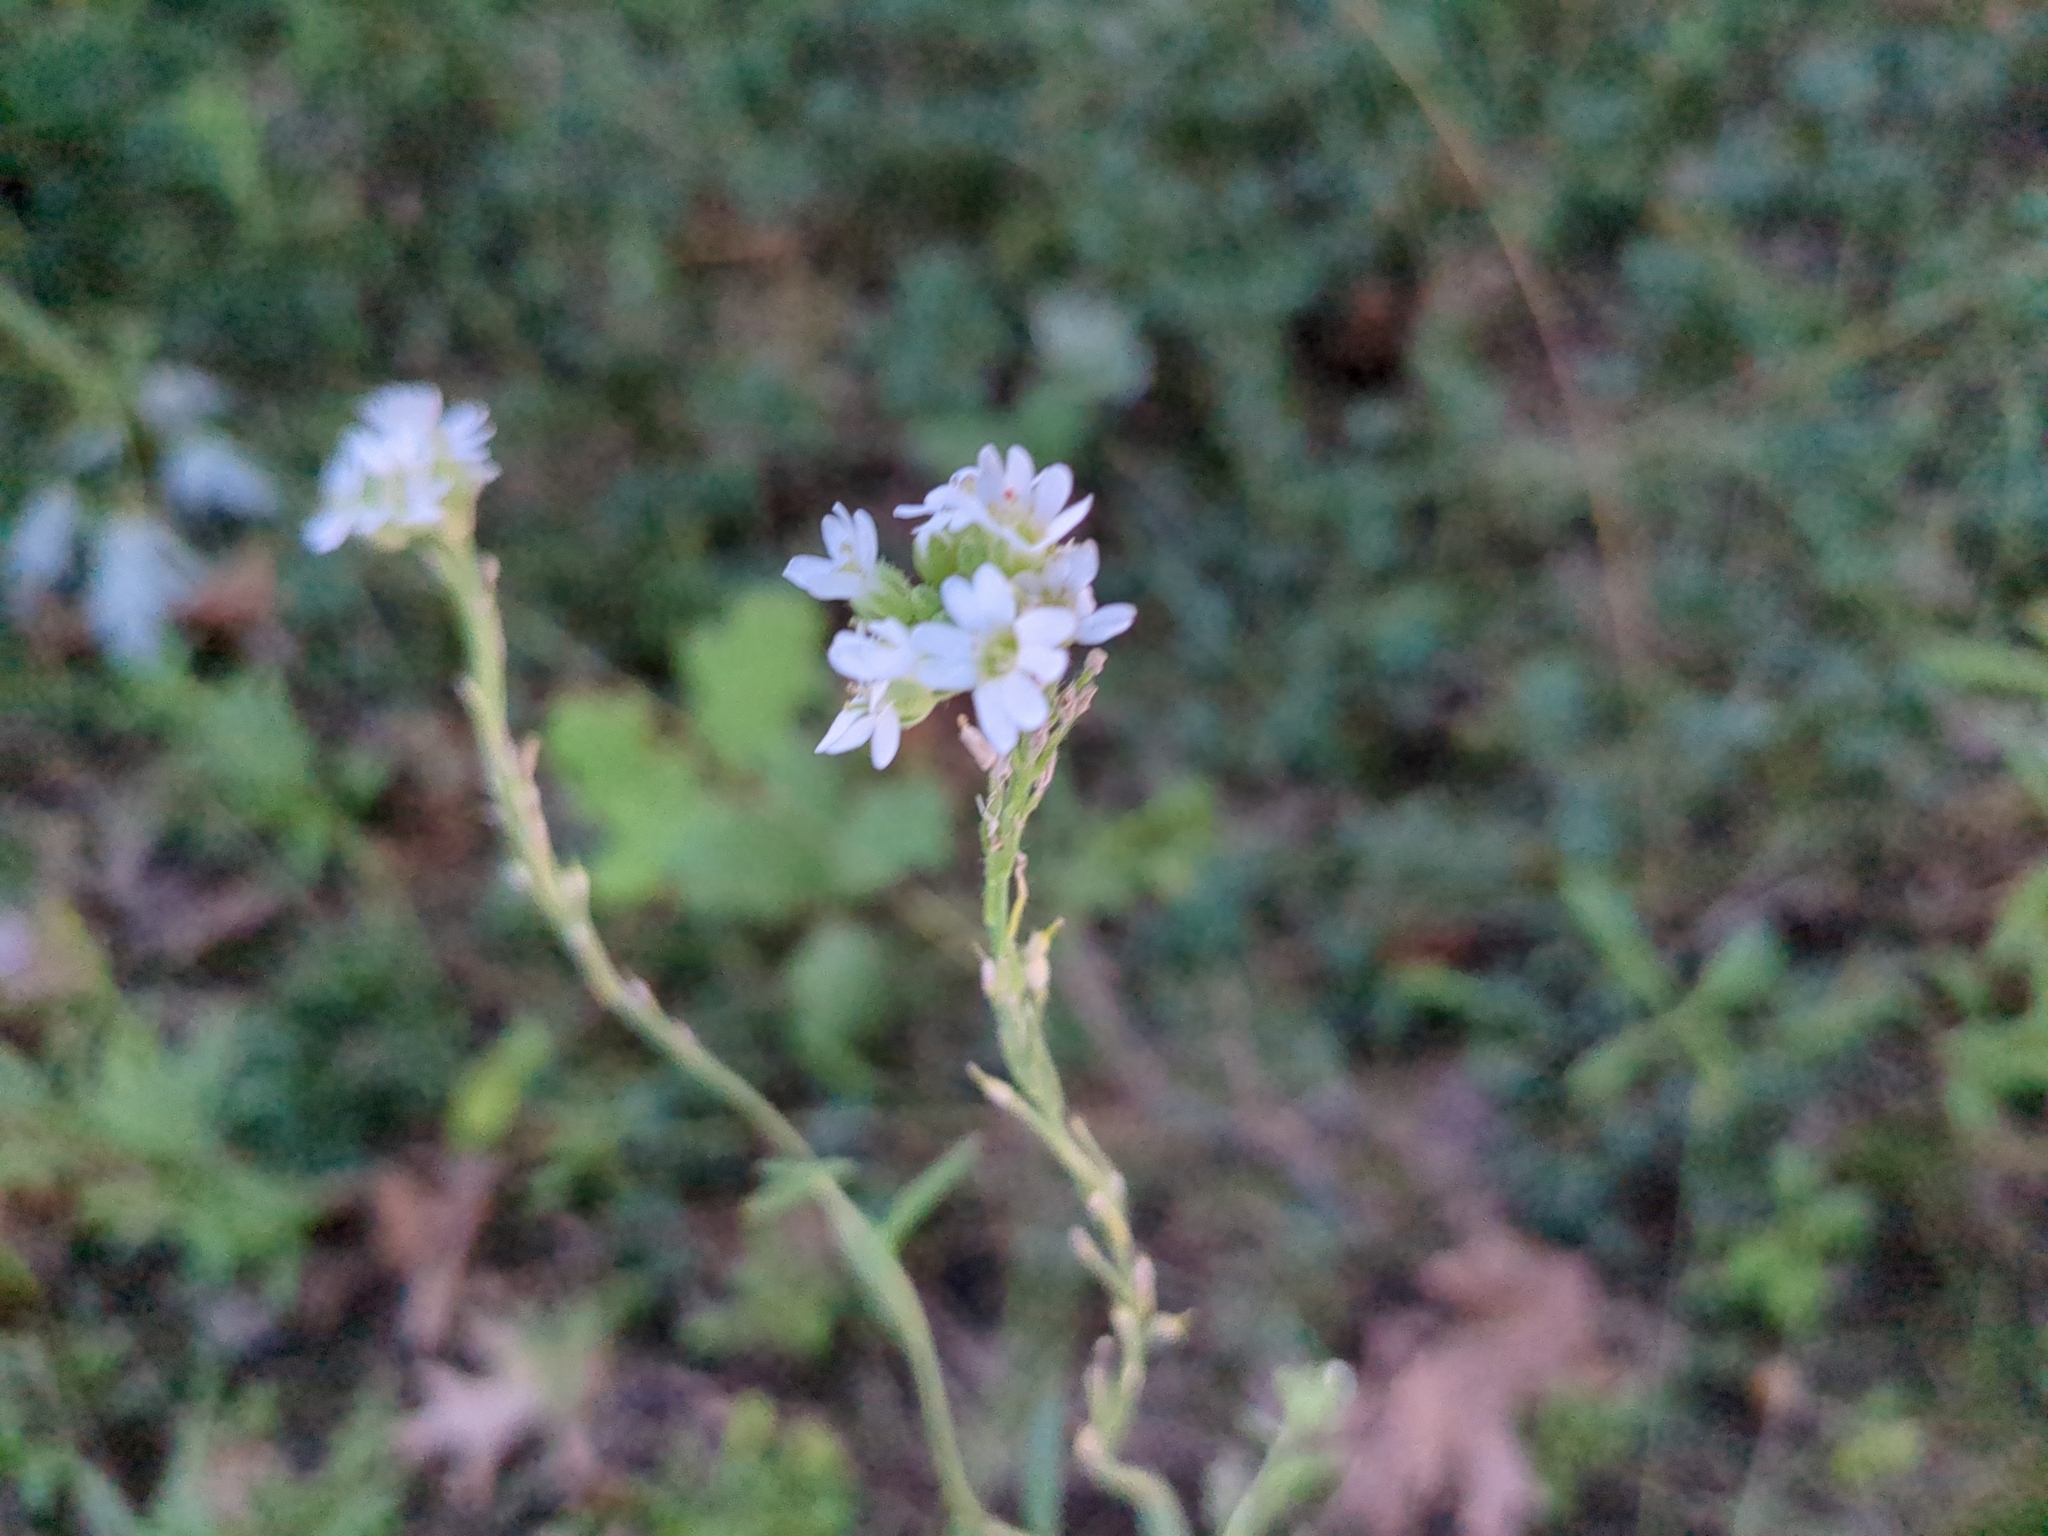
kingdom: Plantae
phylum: Tracheophyta
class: Magnoliopsida
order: Brassicales
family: Brassicaceae
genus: Berteroa
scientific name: Berteroa incana
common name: Hoary alison
